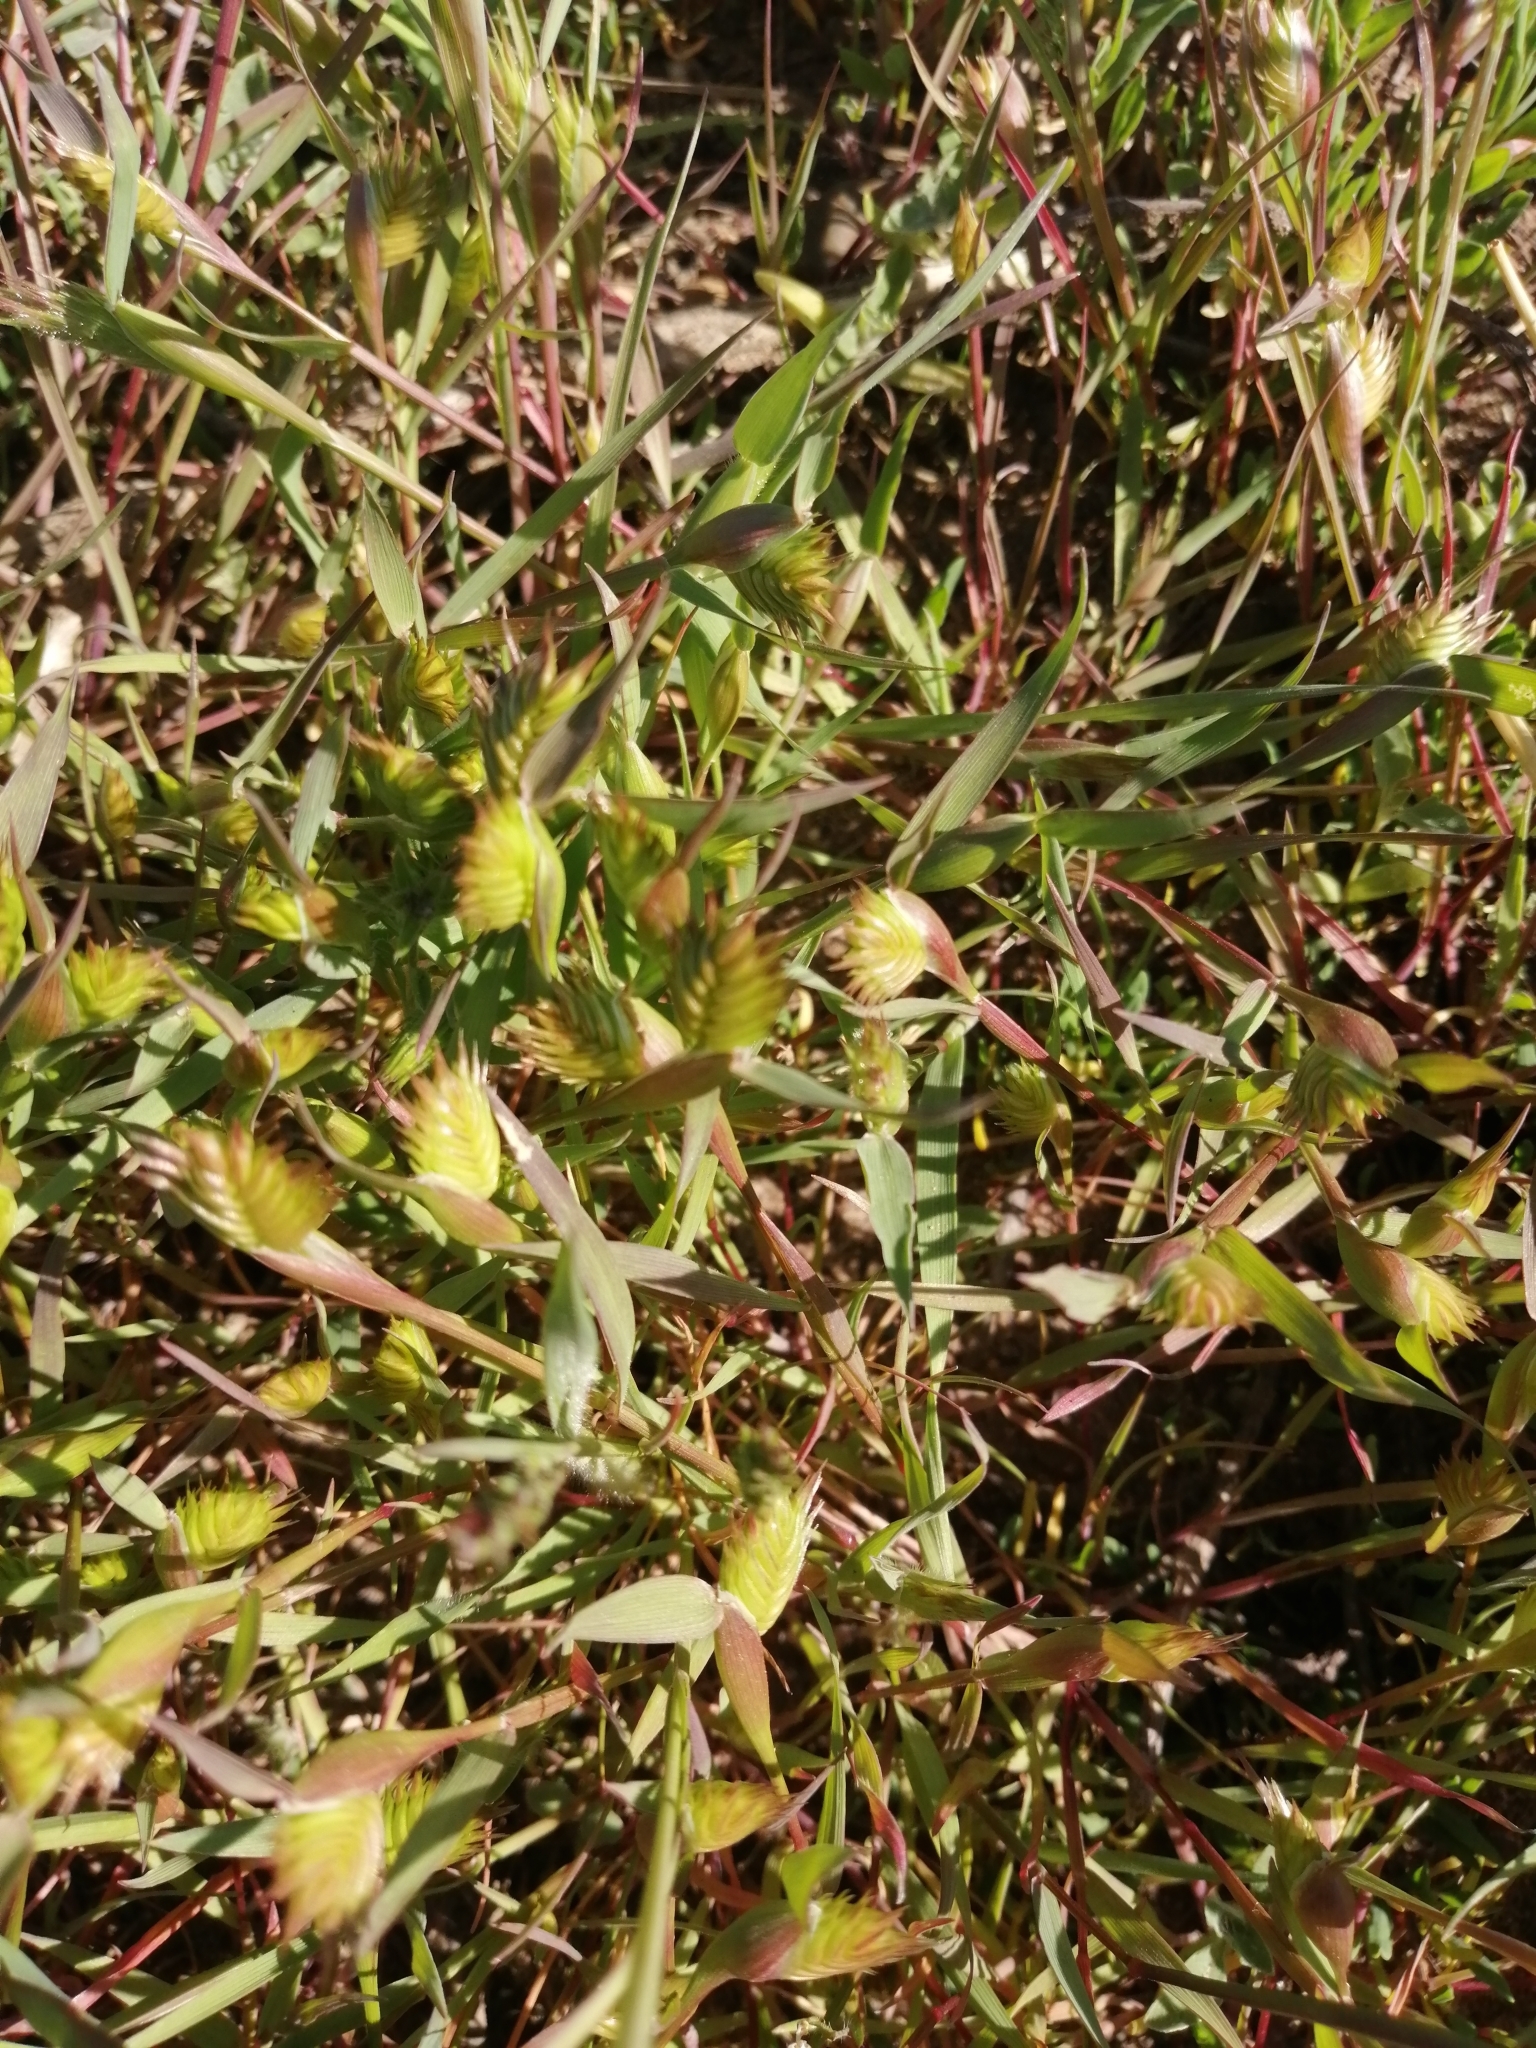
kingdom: Plantae
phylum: Tracheophyta
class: Liliopsida
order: Poales
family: Poaceae
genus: Eremopyrum
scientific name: Eremopyrum triticeum
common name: Annual wheatgrass
